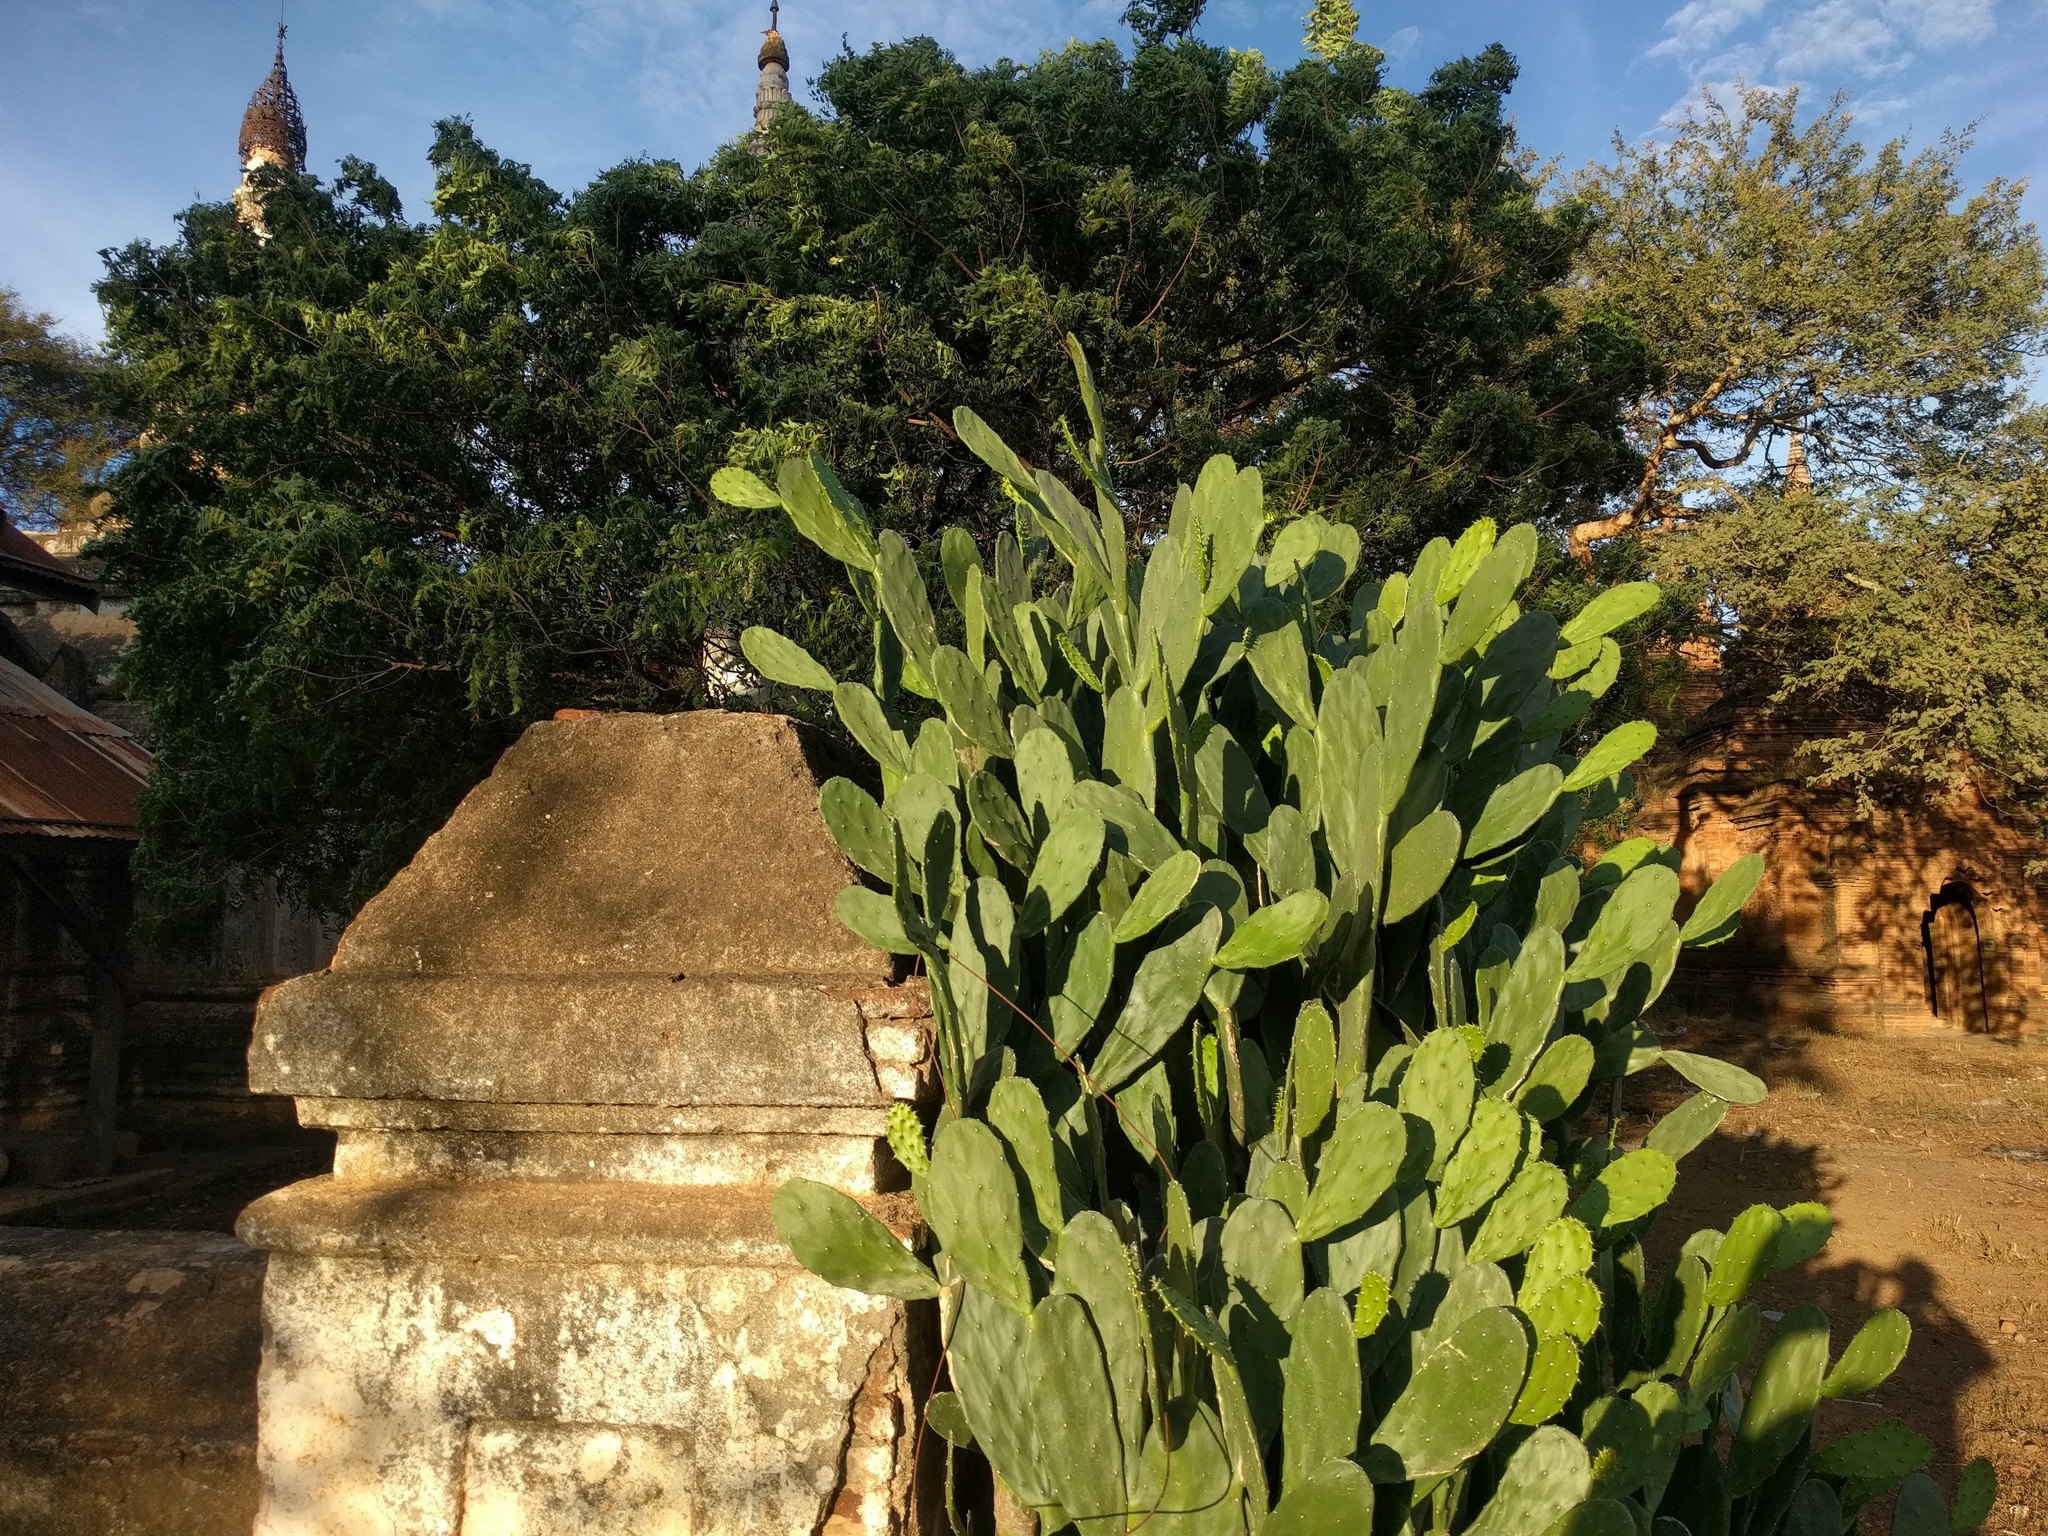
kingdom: Plantae
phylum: Tracheophyta
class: Magnoliopsida
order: Caryophyllales
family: Cactaceae
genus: Opuntia
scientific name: Opuntia cochenillifera
